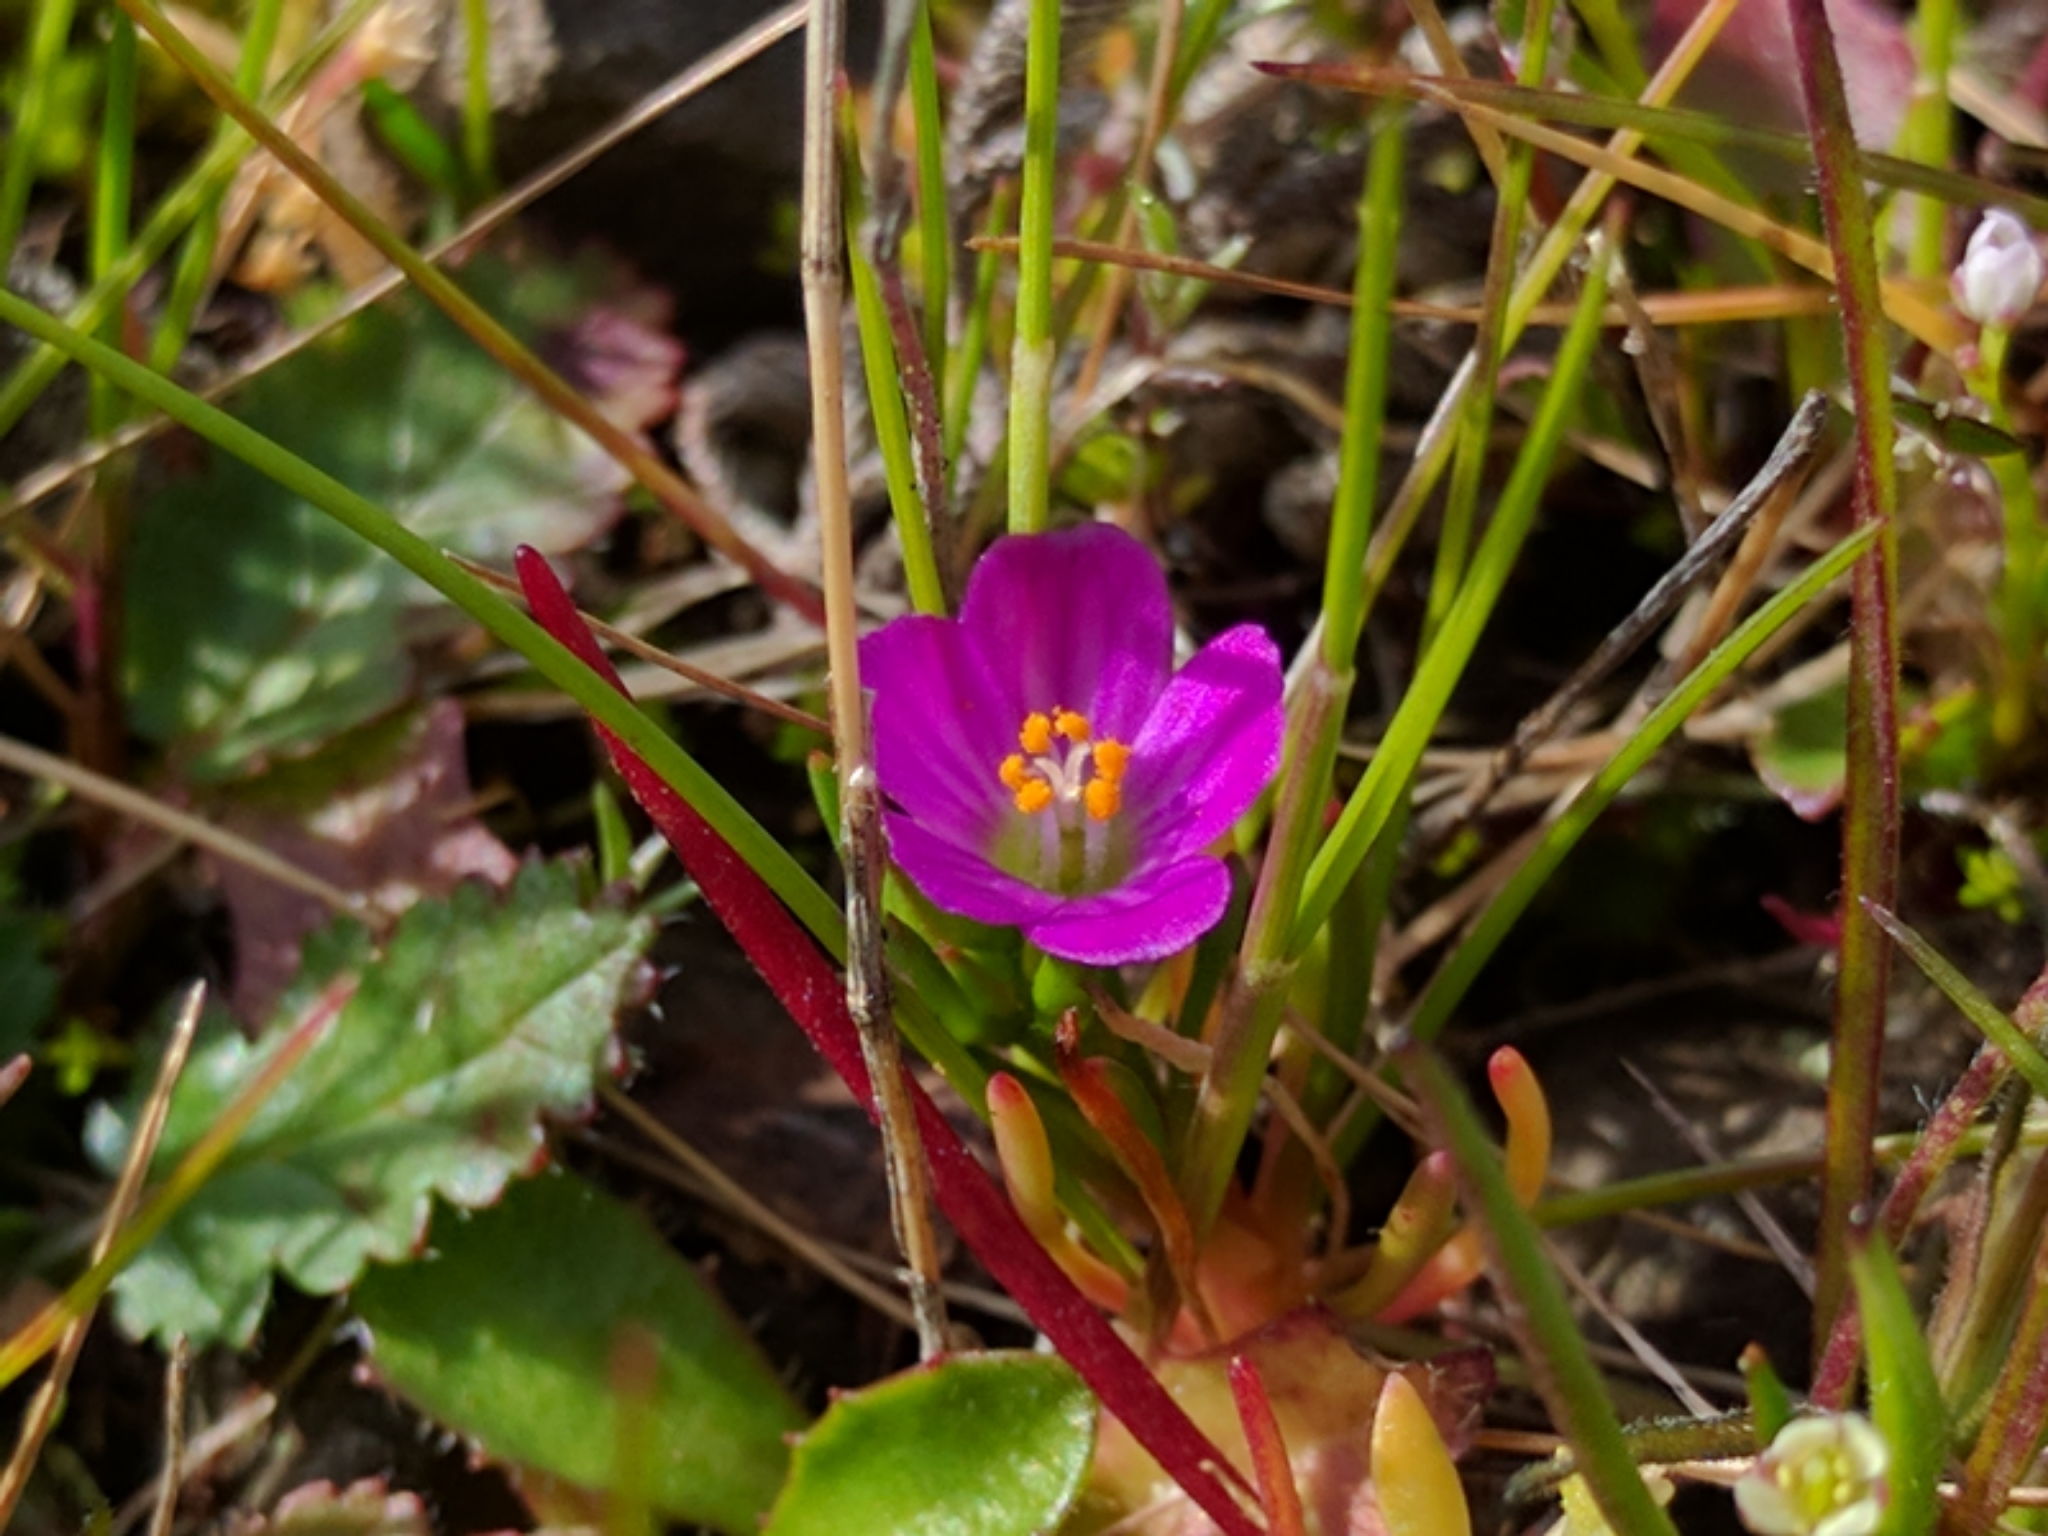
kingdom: Plantae
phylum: Tracheophyta
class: Magnoliopsida
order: Caryophyllales
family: Montiaceae
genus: Calandrinia
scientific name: Calandrinia menziesii
